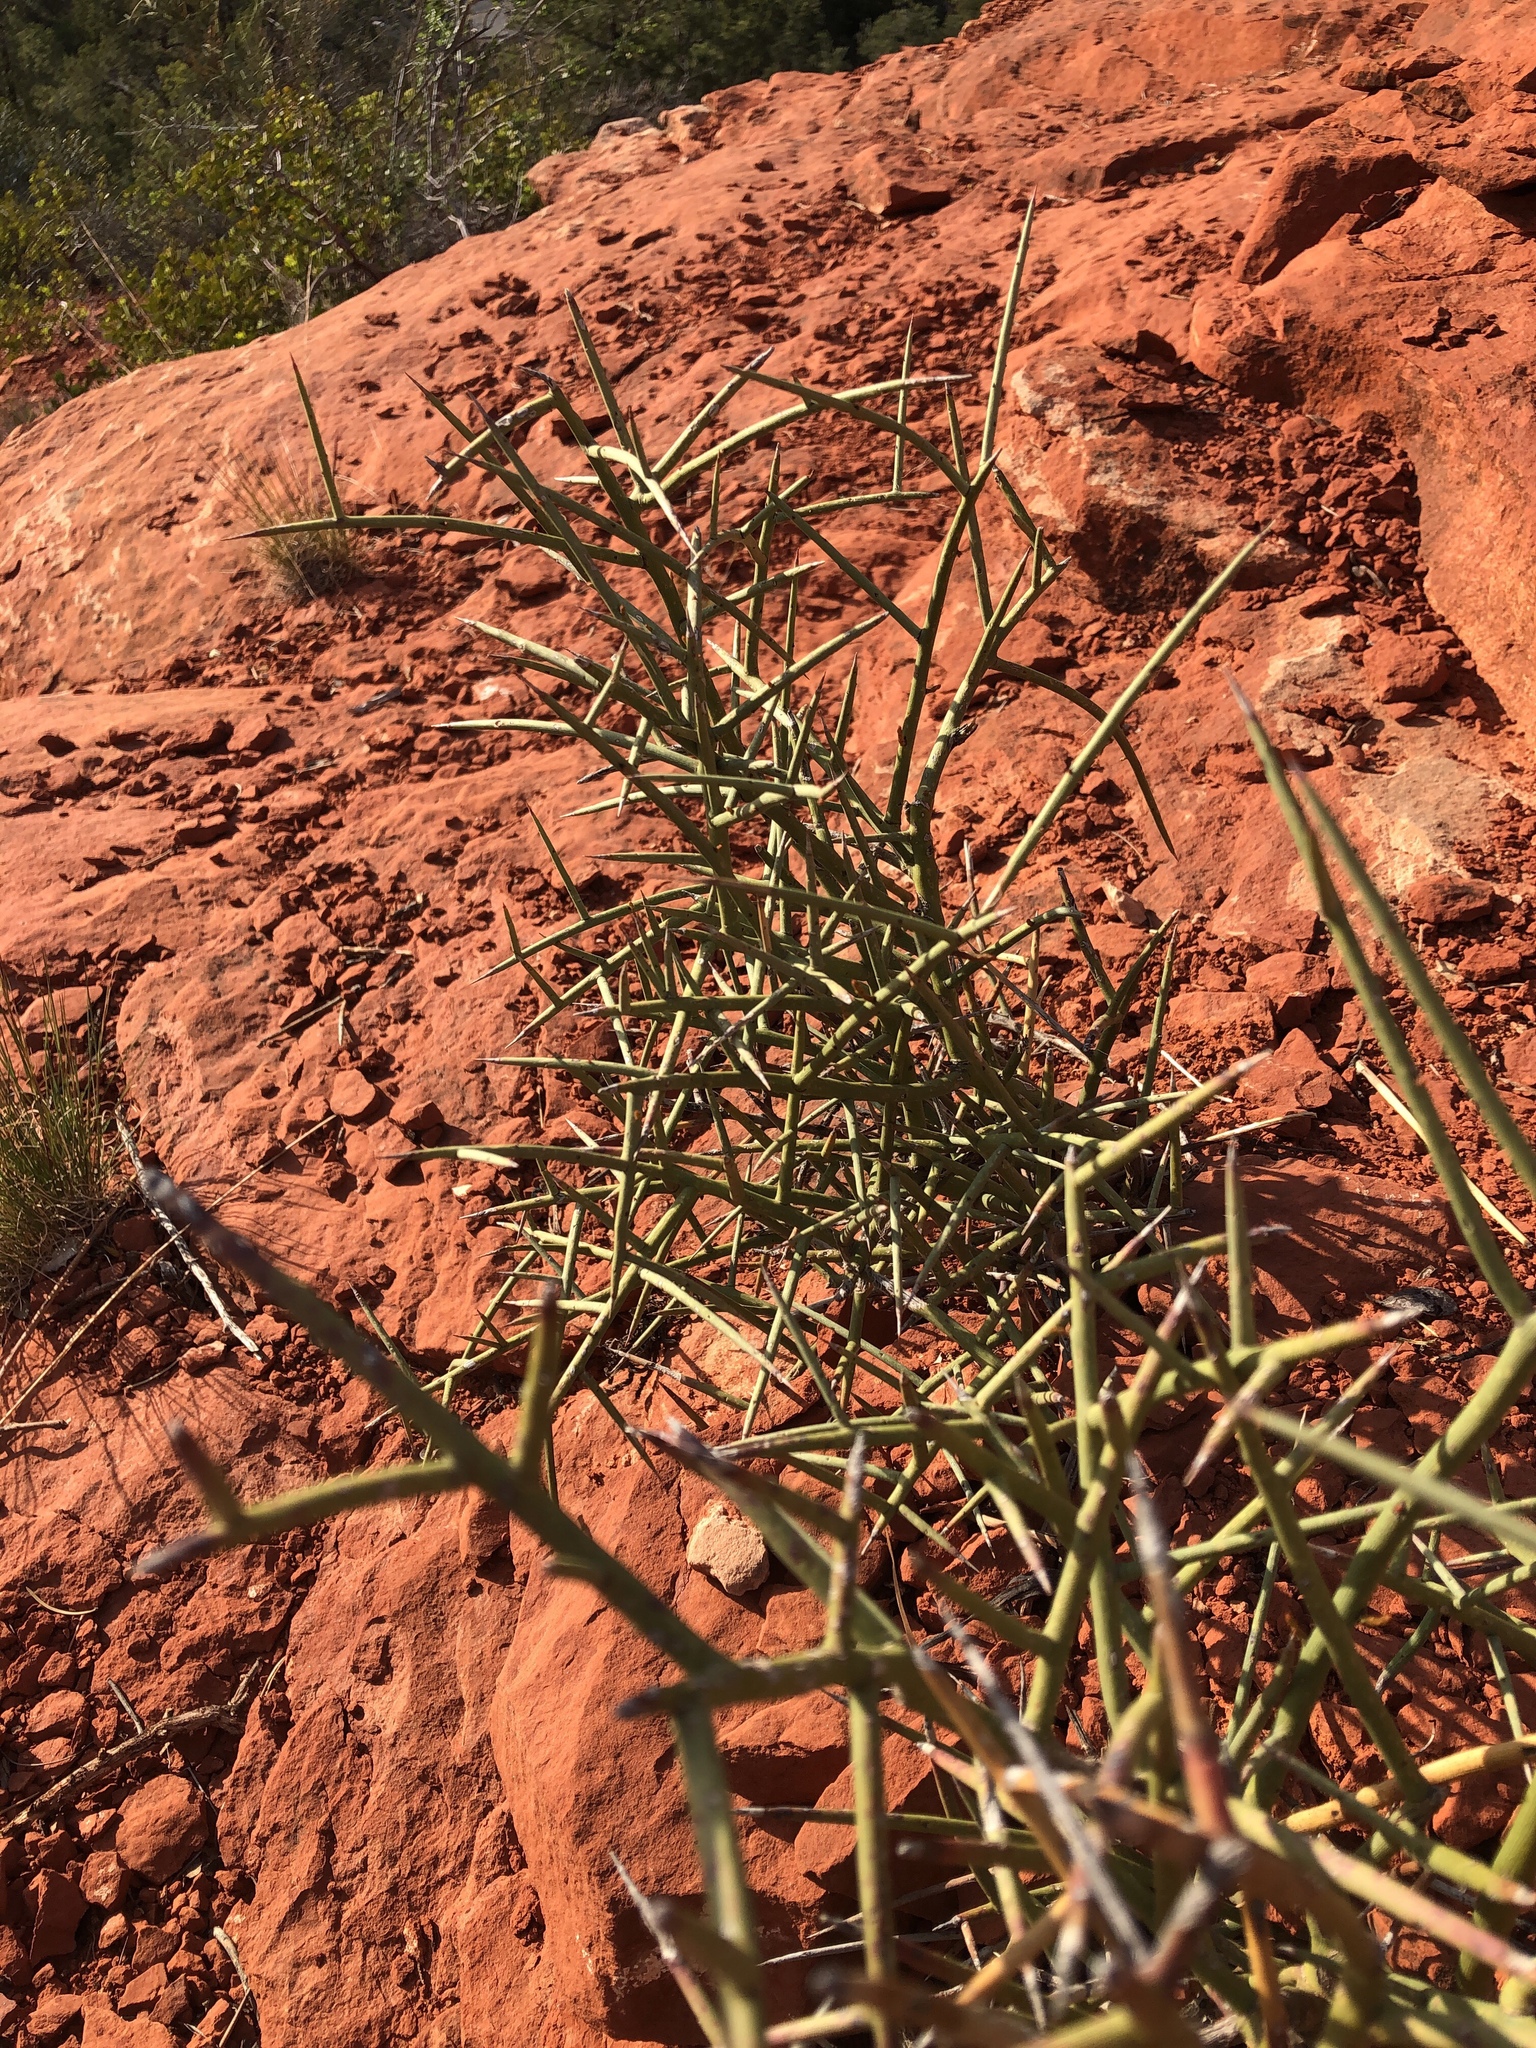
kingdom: Plantae
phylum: Tracheophyta
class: Magnoliopsida
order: Celastrales
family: Celastraceae
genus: Canotia
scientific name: Canotia holacantha
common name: Crucifixion thorns
